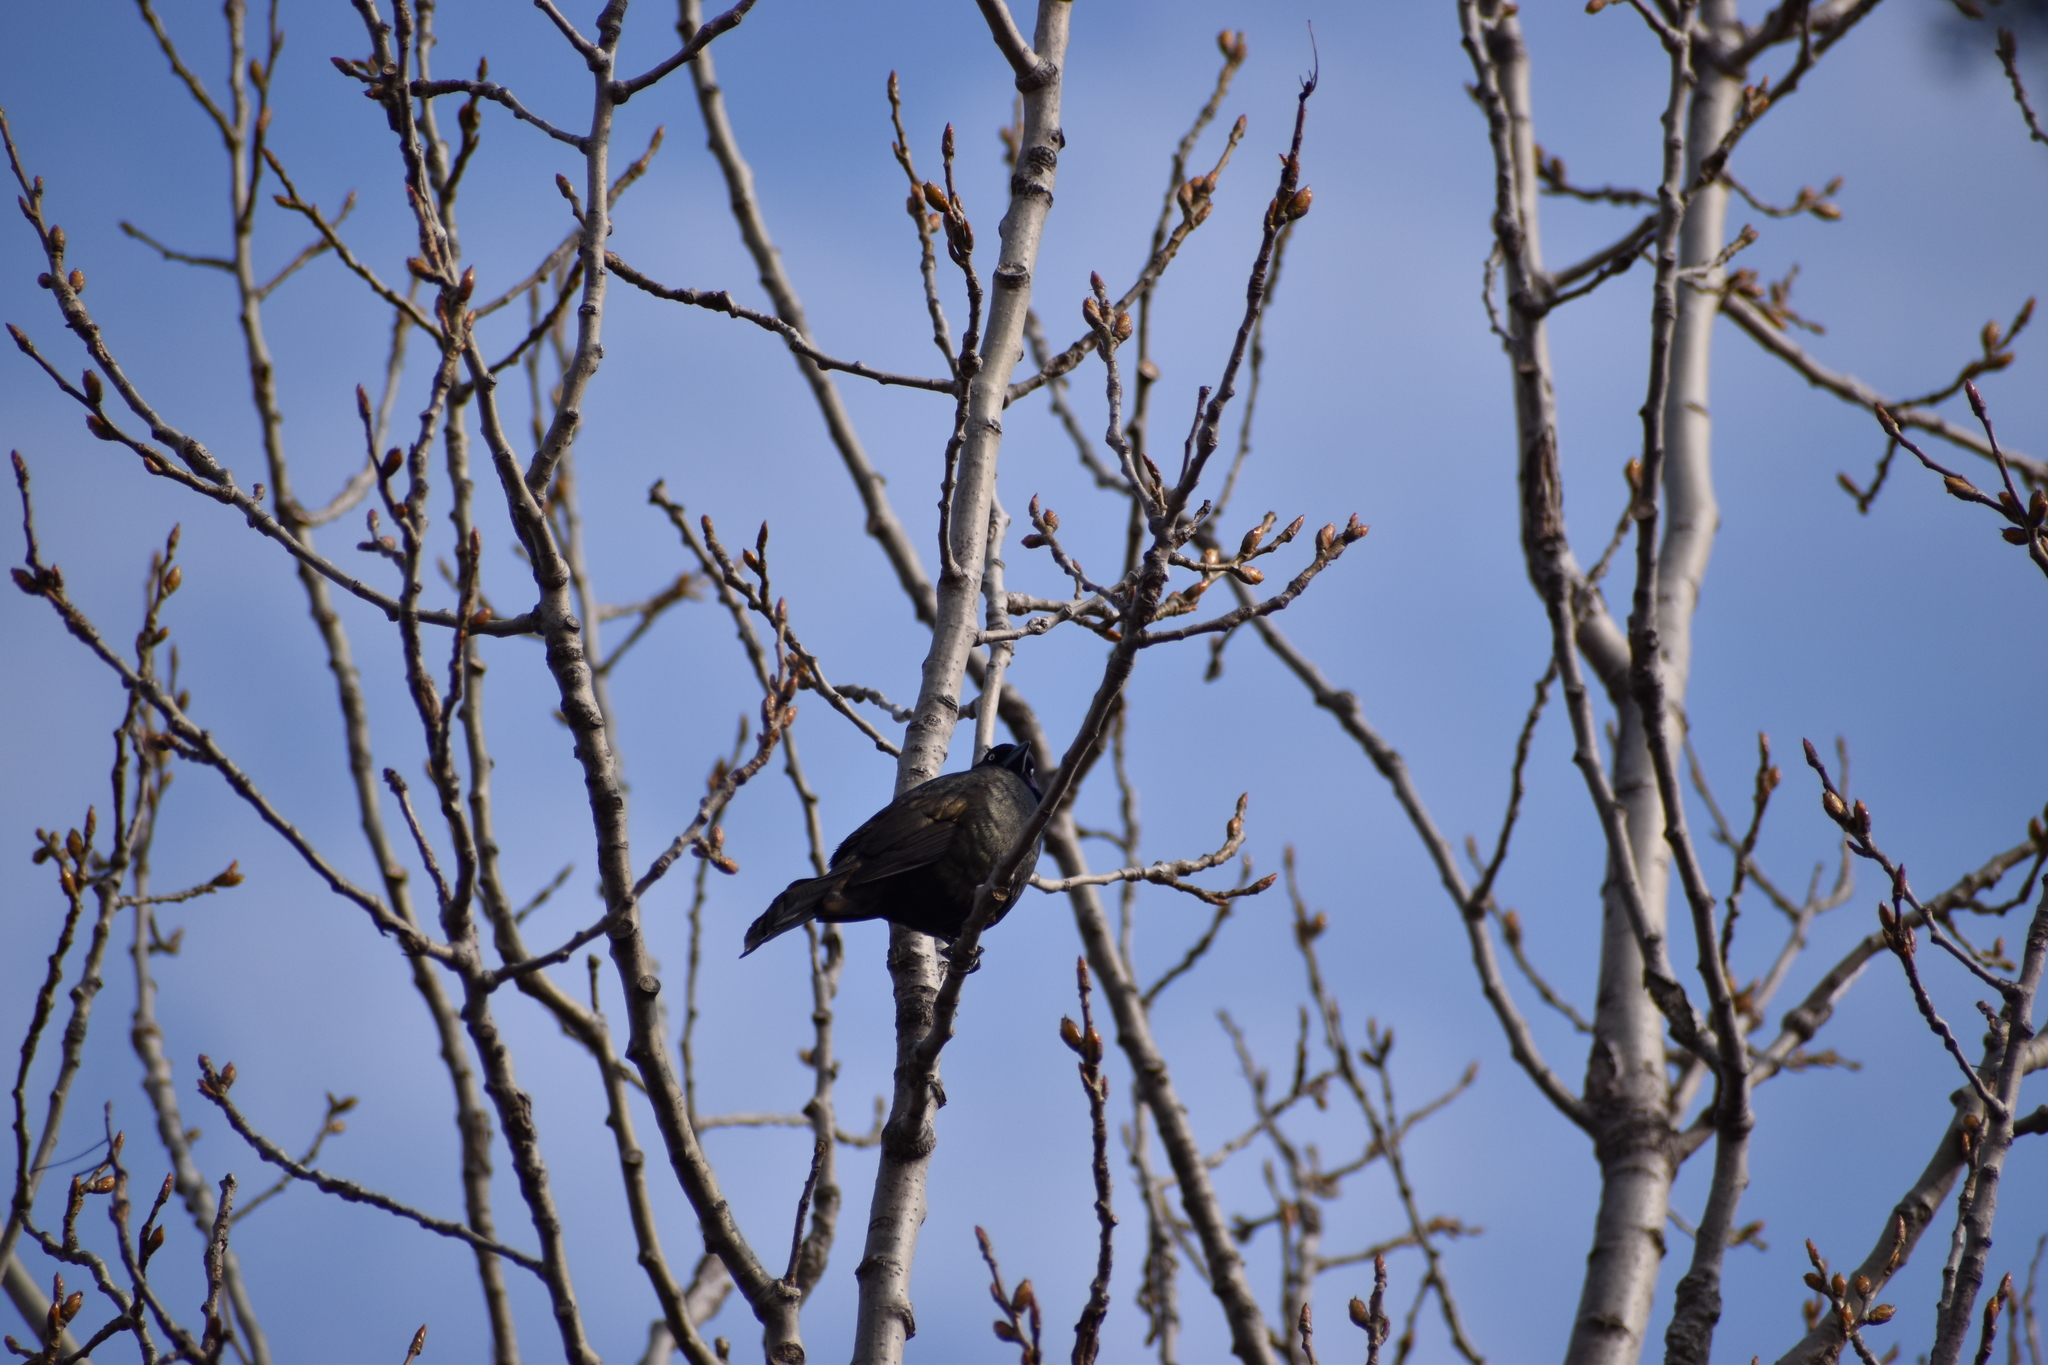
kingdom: Animalia
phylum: Chordata
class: Aves
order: Passeriformes
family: Icteridae
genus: Quiscalus
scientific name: Quiscalus quiscula
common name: Common grackle
